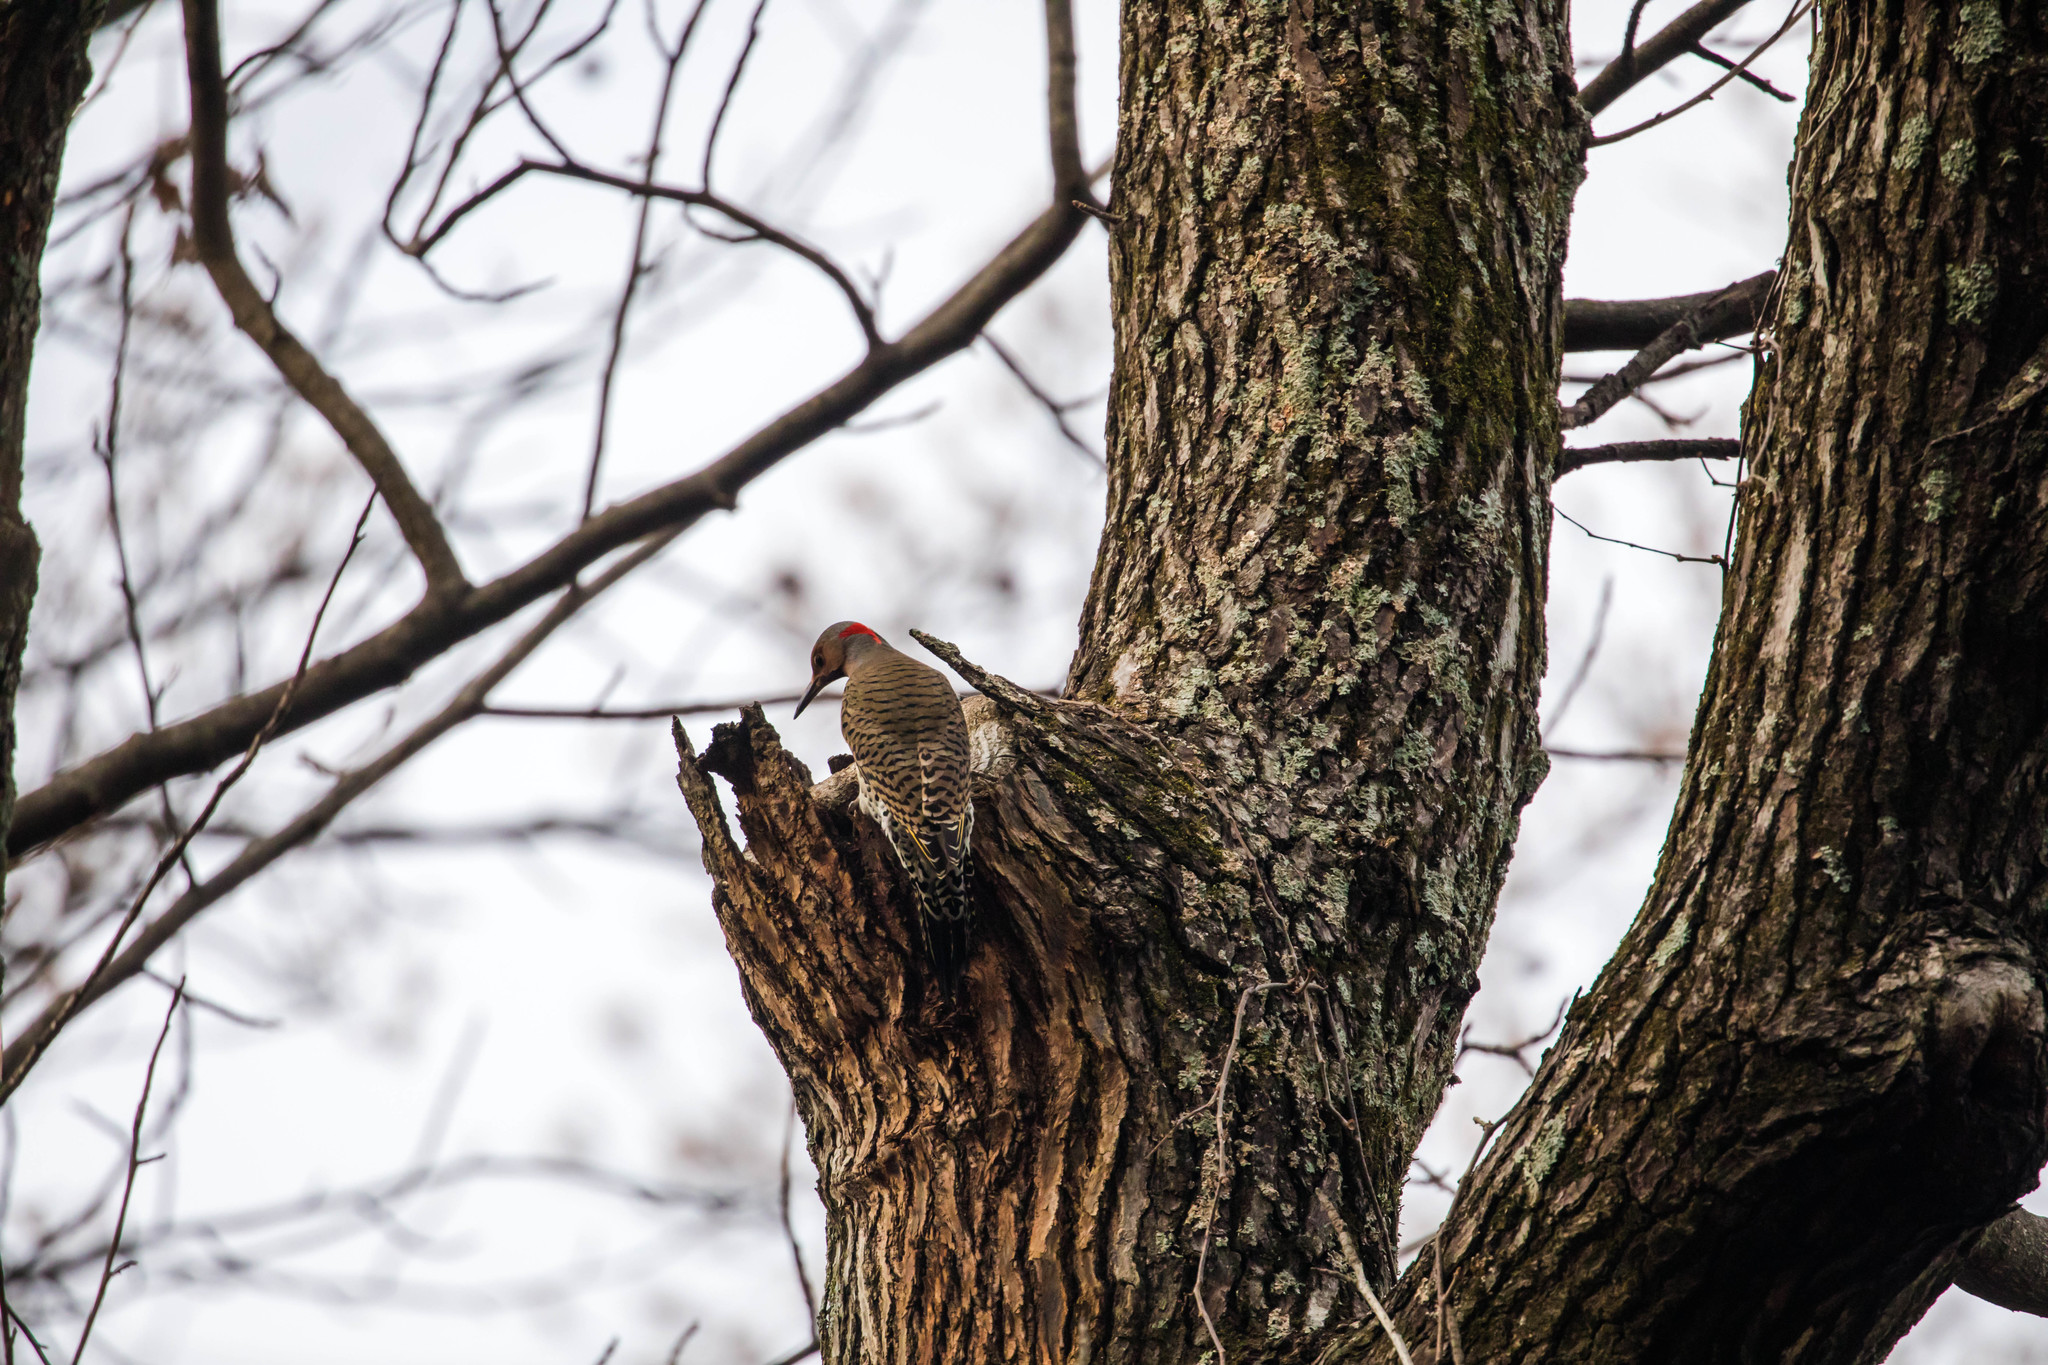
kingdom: Animalia
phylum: Chordata
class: Aves
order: Piciformes
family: Picidae
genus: Colaptes
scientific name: Colaptes auratus
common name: Northern flicker
